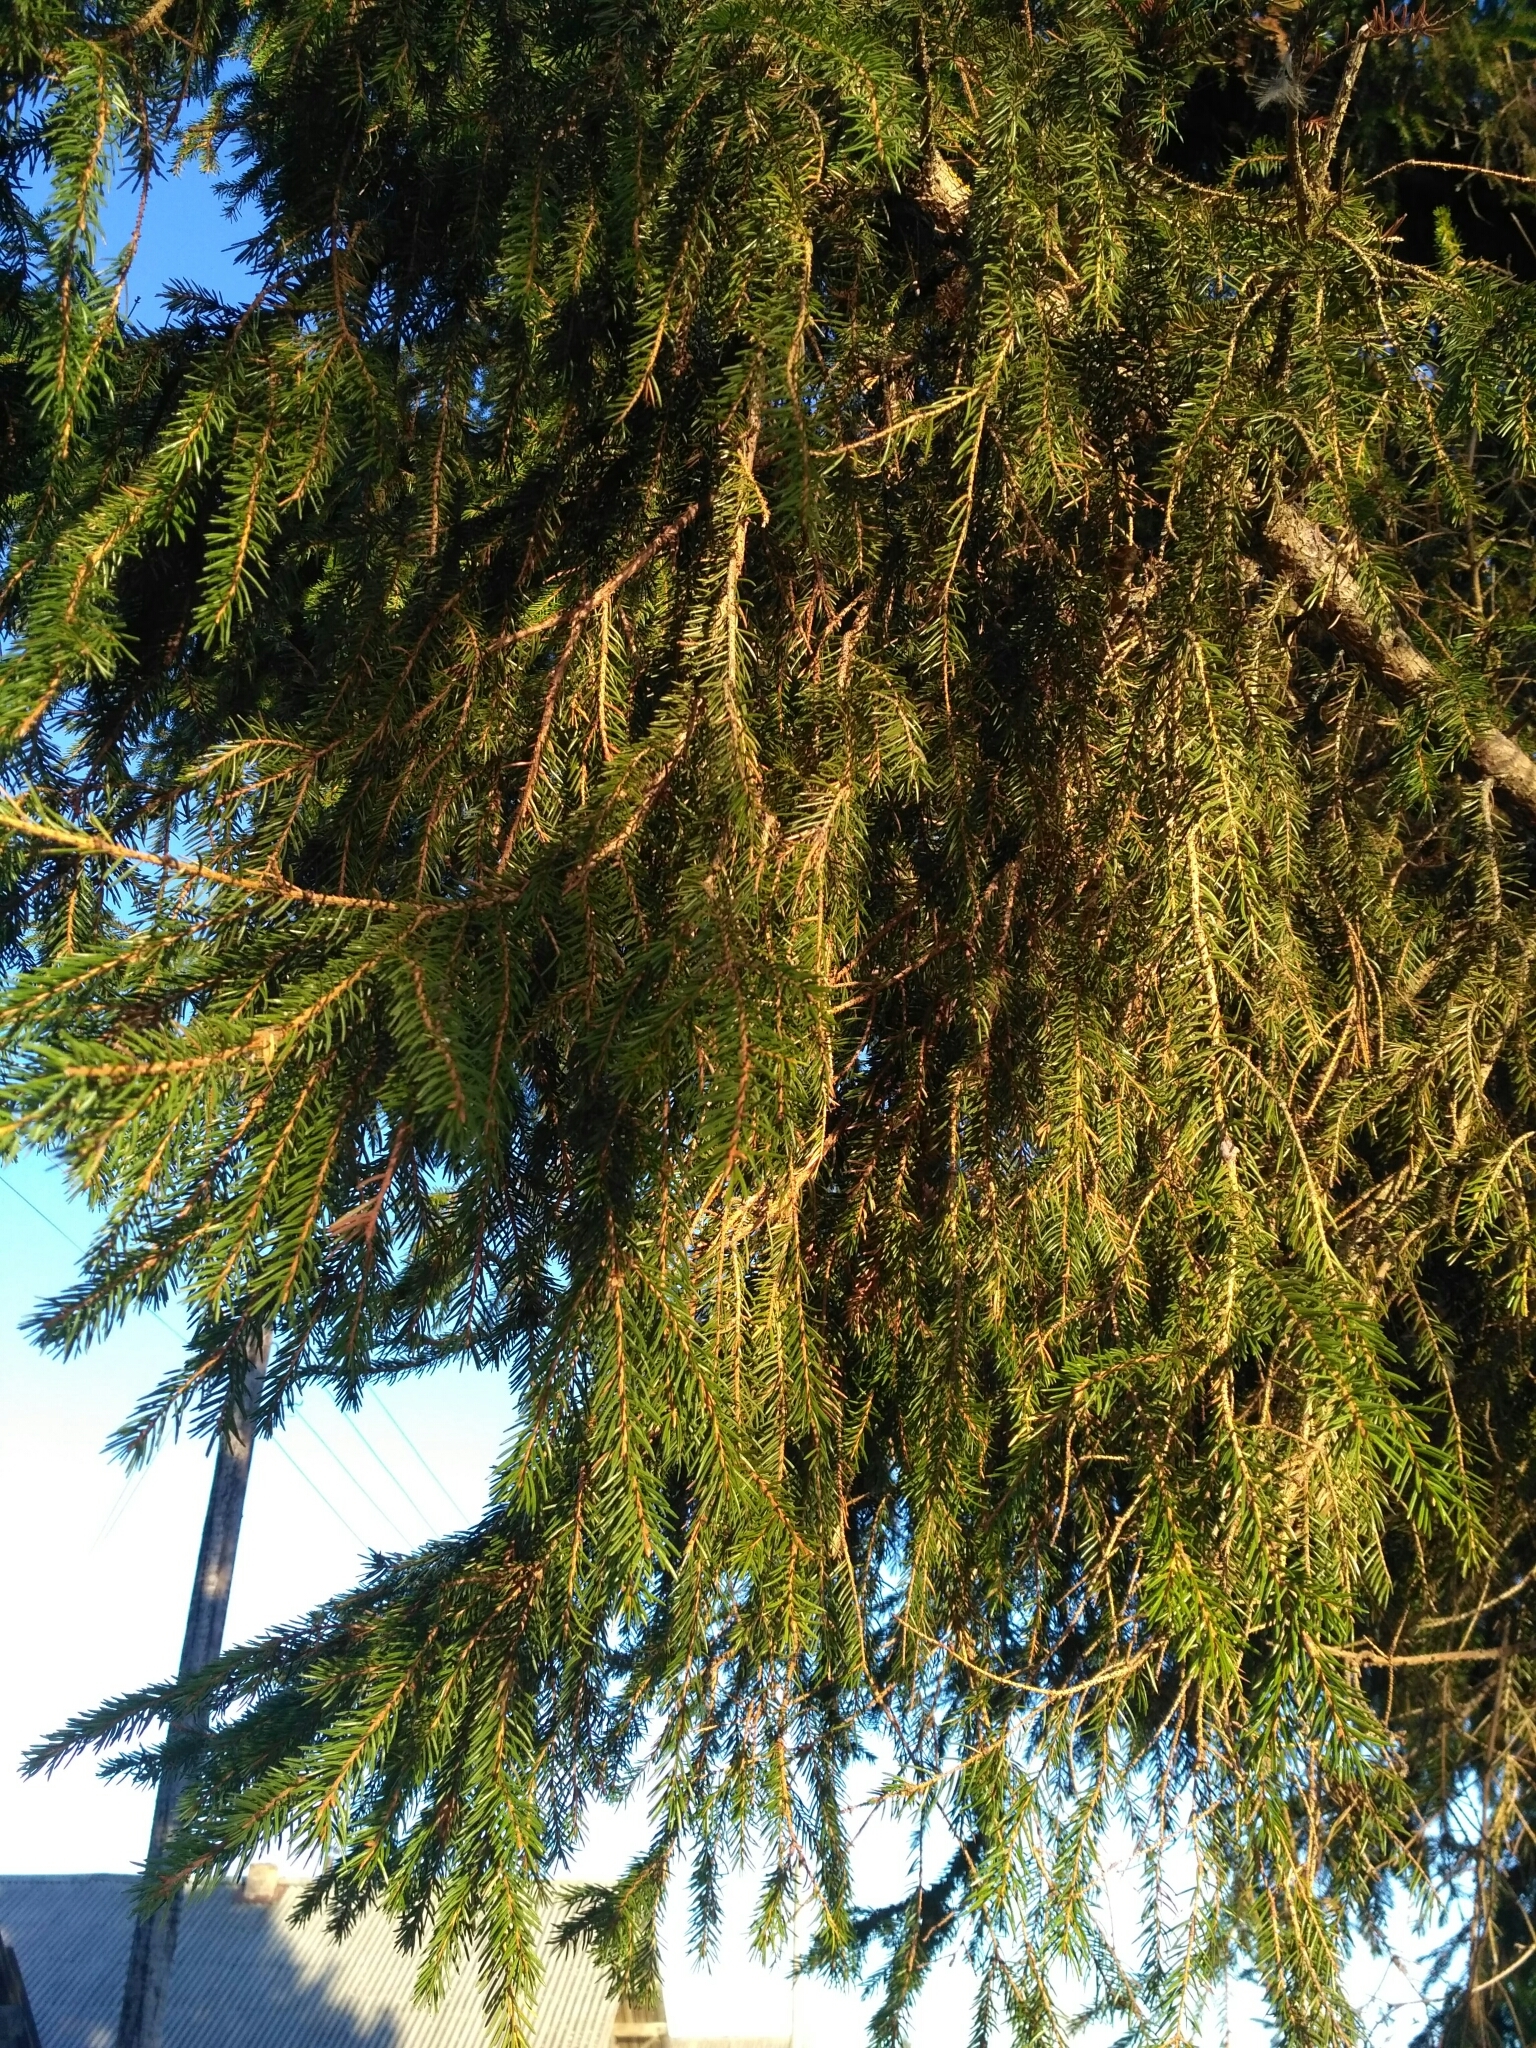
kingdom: Plantae
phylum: Tracheophyta
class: Pinopsida
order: Pinales
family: Pinaceae
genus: Picea
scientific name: Picea abies
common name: Norway spruce
